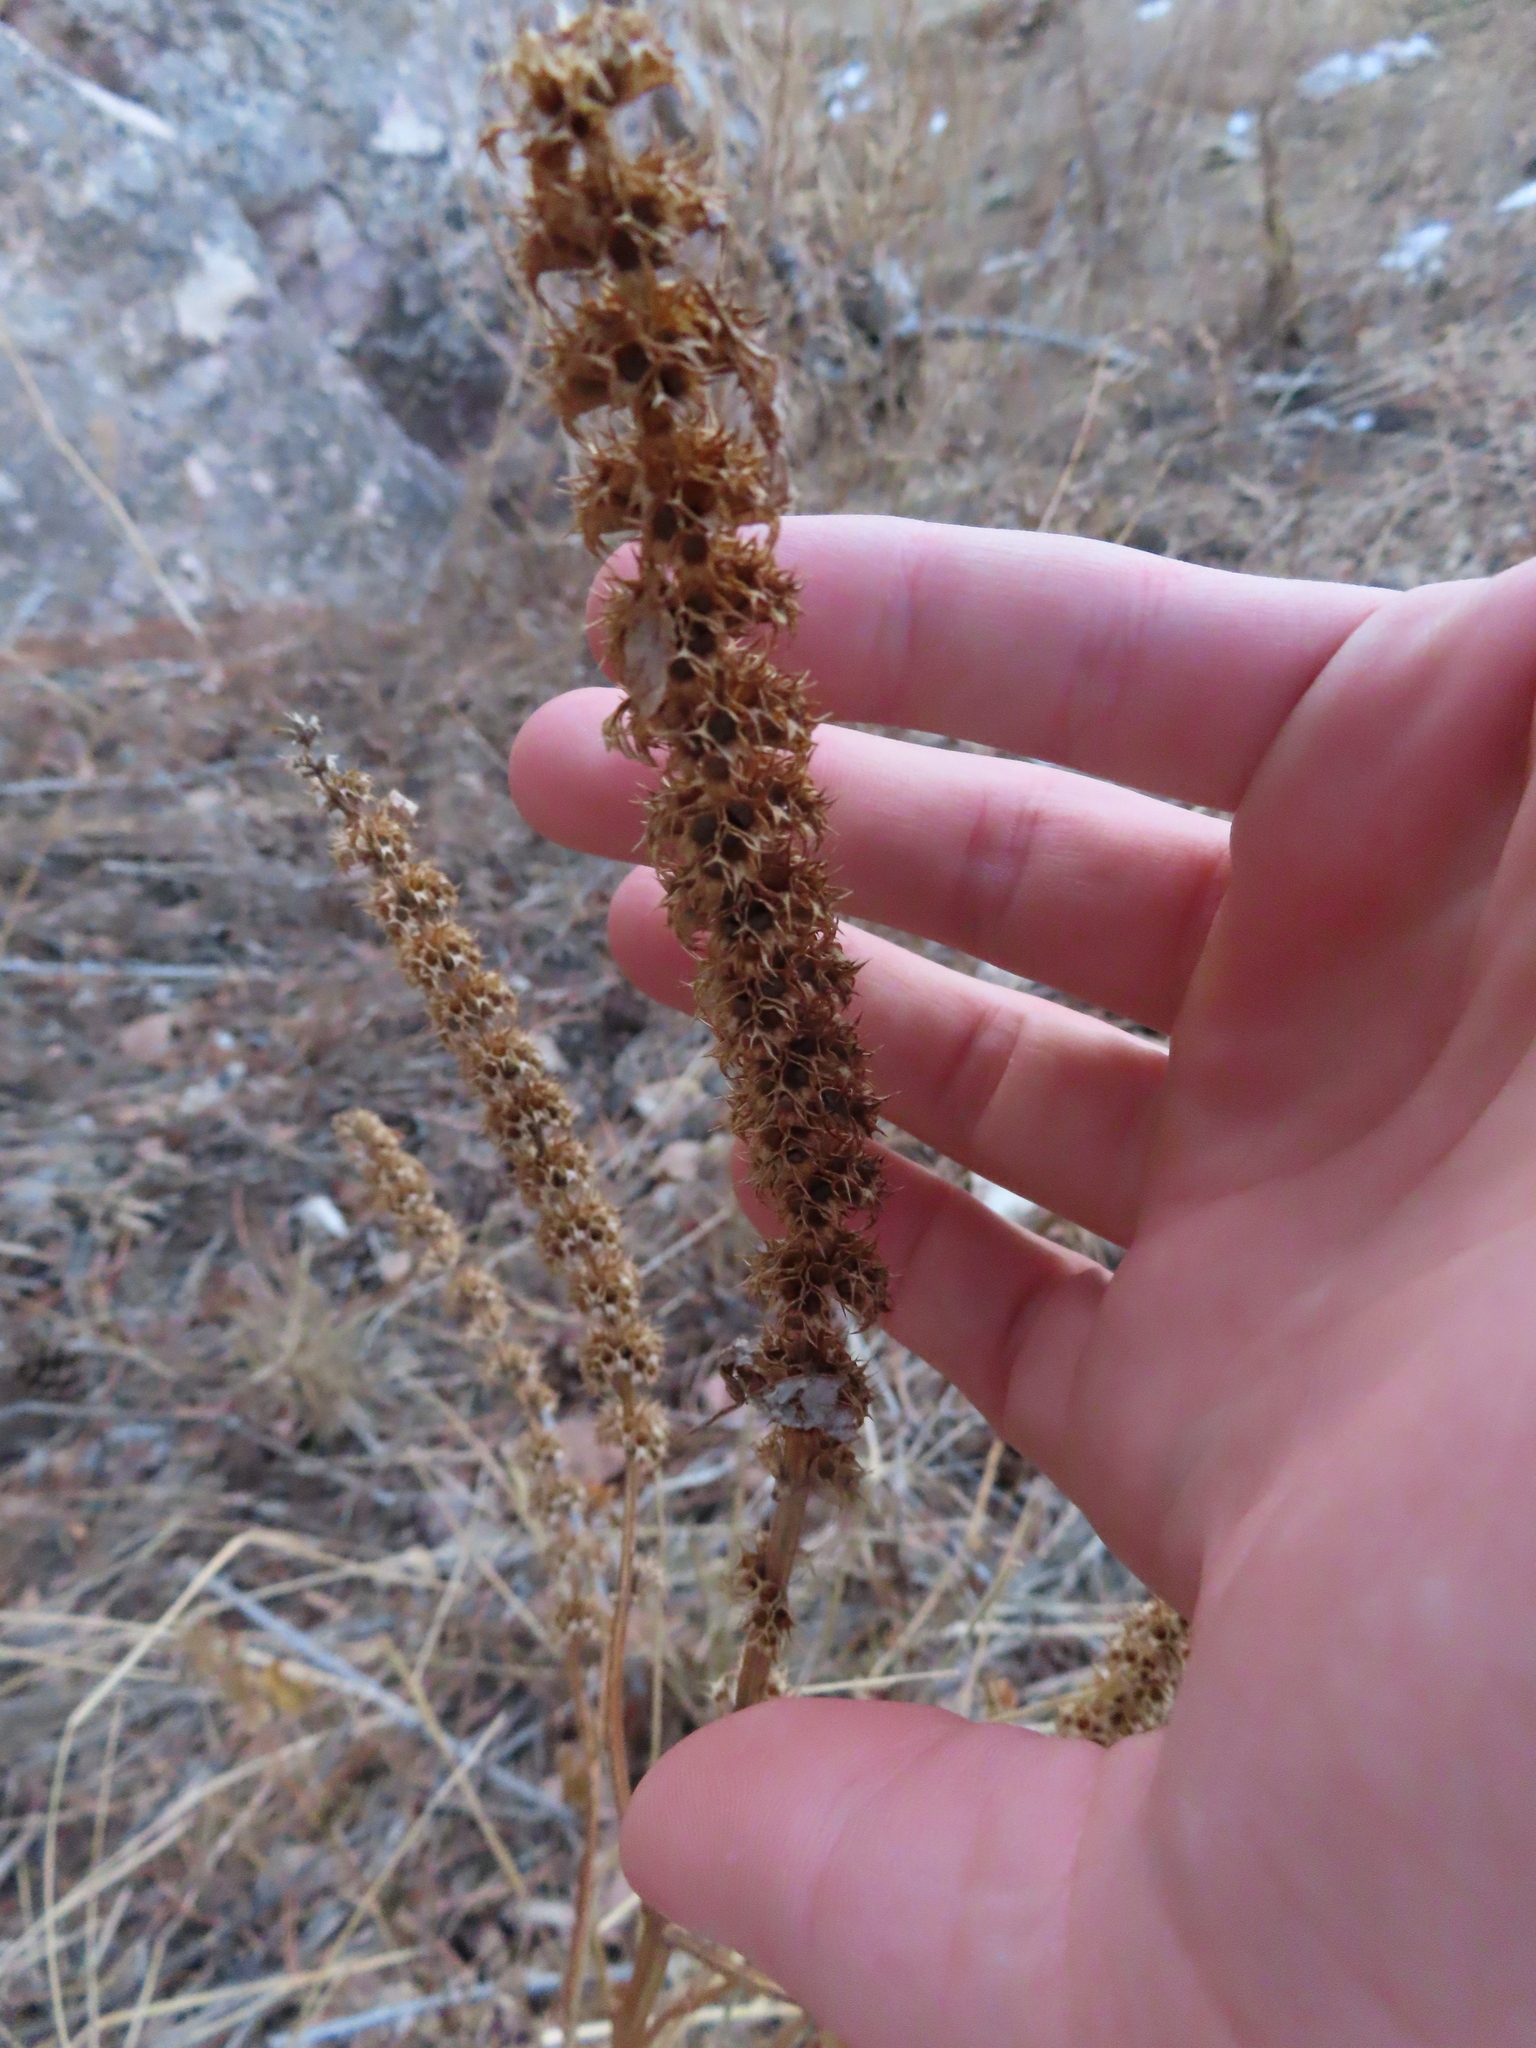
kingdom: Plantae
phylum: Tracheophyta
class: Magnoliopsida
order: Lamiales
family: Lamiaceae
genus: Leonurus
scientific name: Leonurus cardiaca
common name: Motherwort
